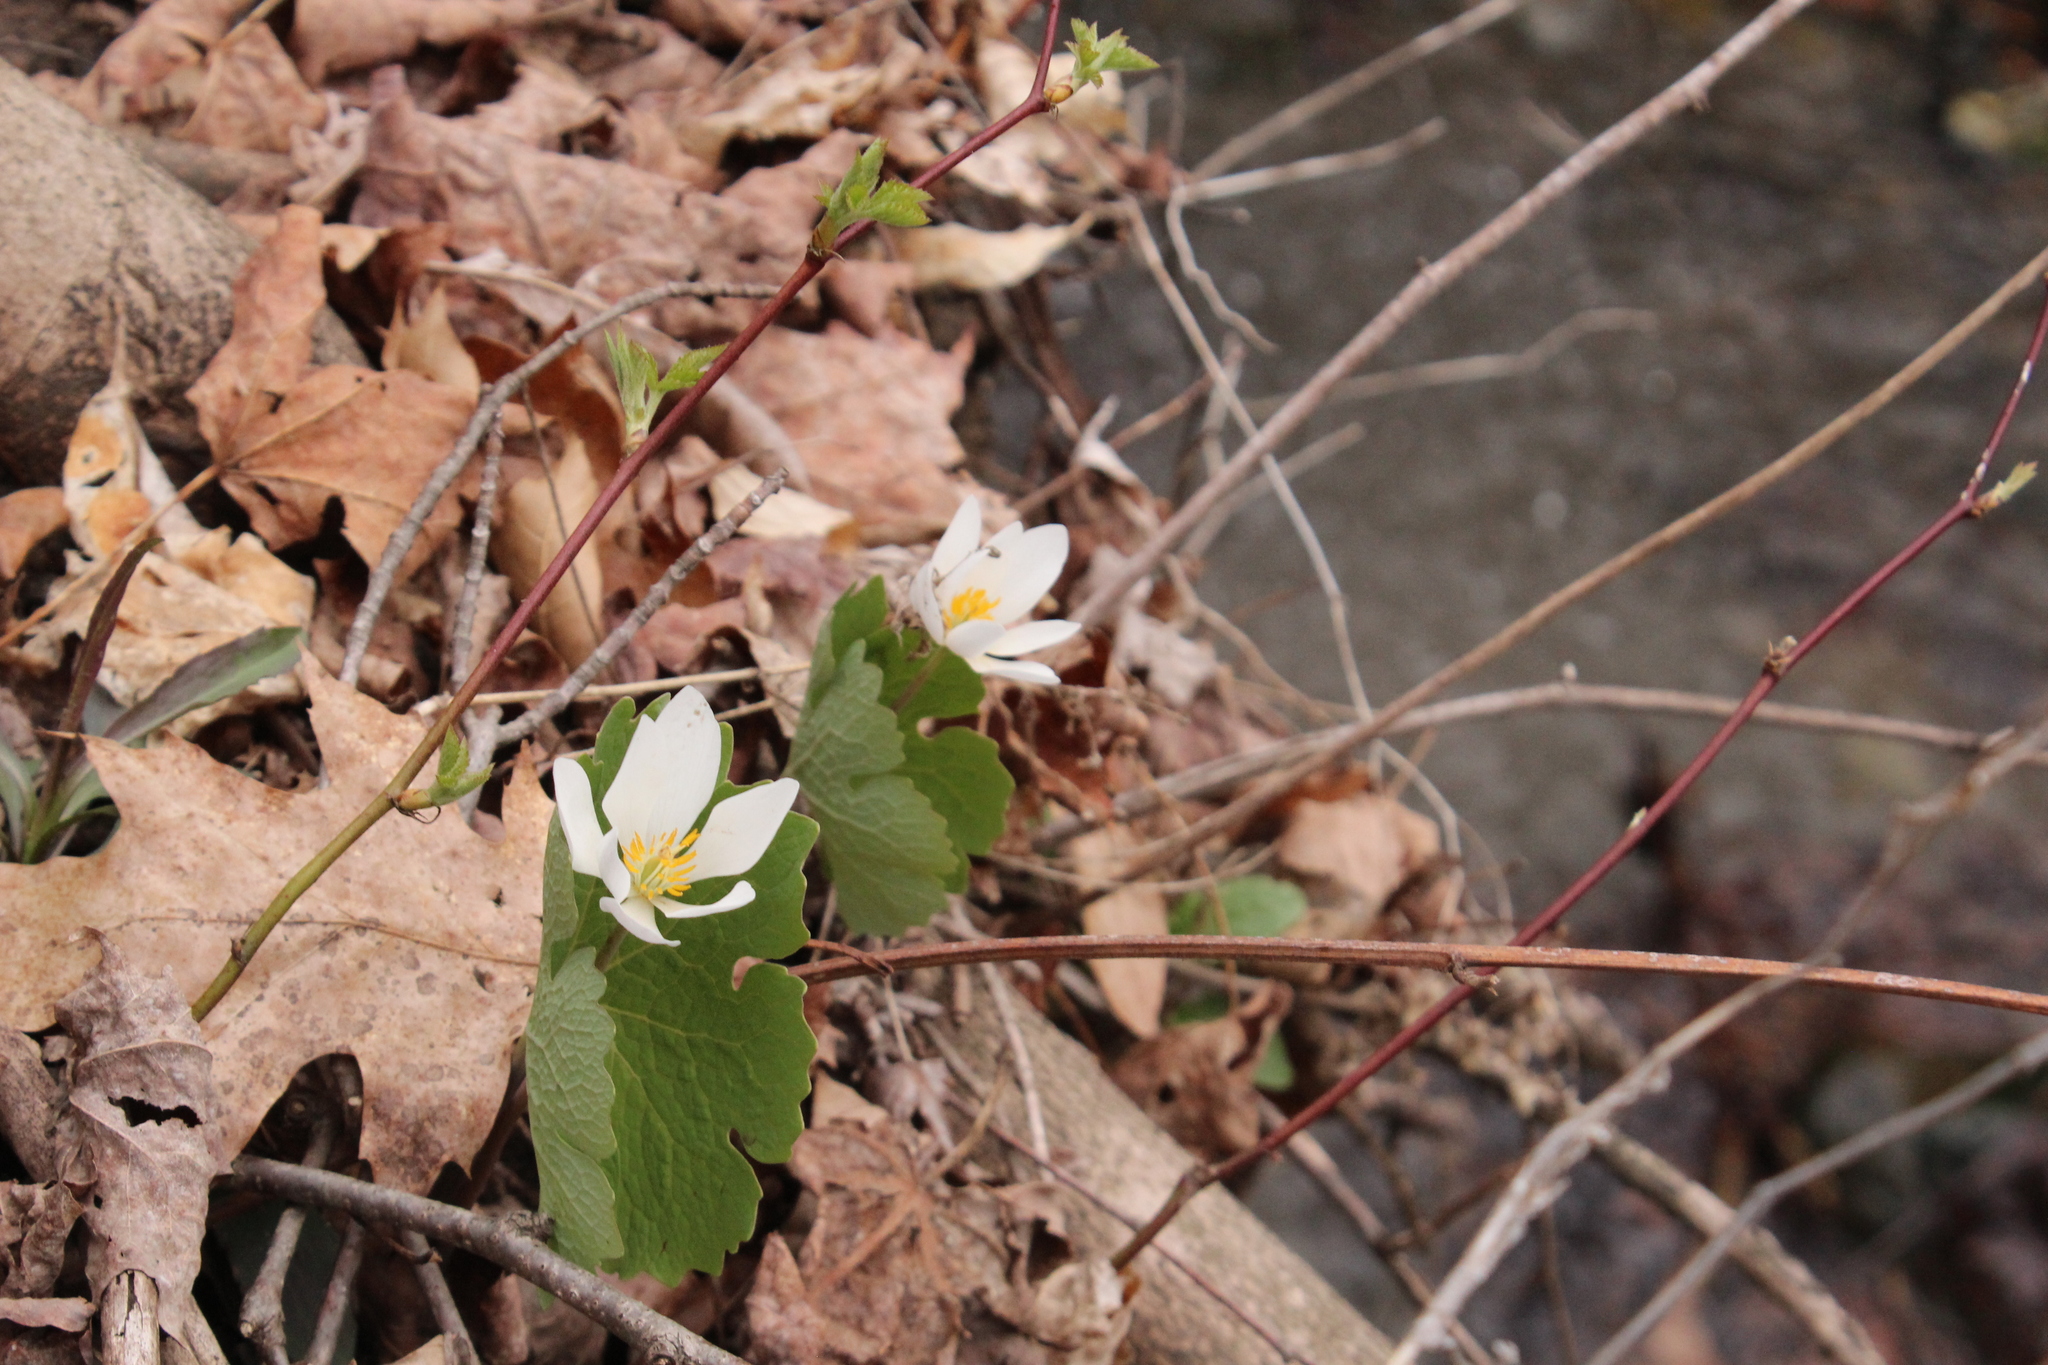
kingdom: Plantae
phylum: Tracheophyta
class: Magnoliopsida
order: Ranunculales
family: Papaveraceae
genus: Sanguinaria
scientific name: Sanguinaria canadensis
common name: Bloodroot
